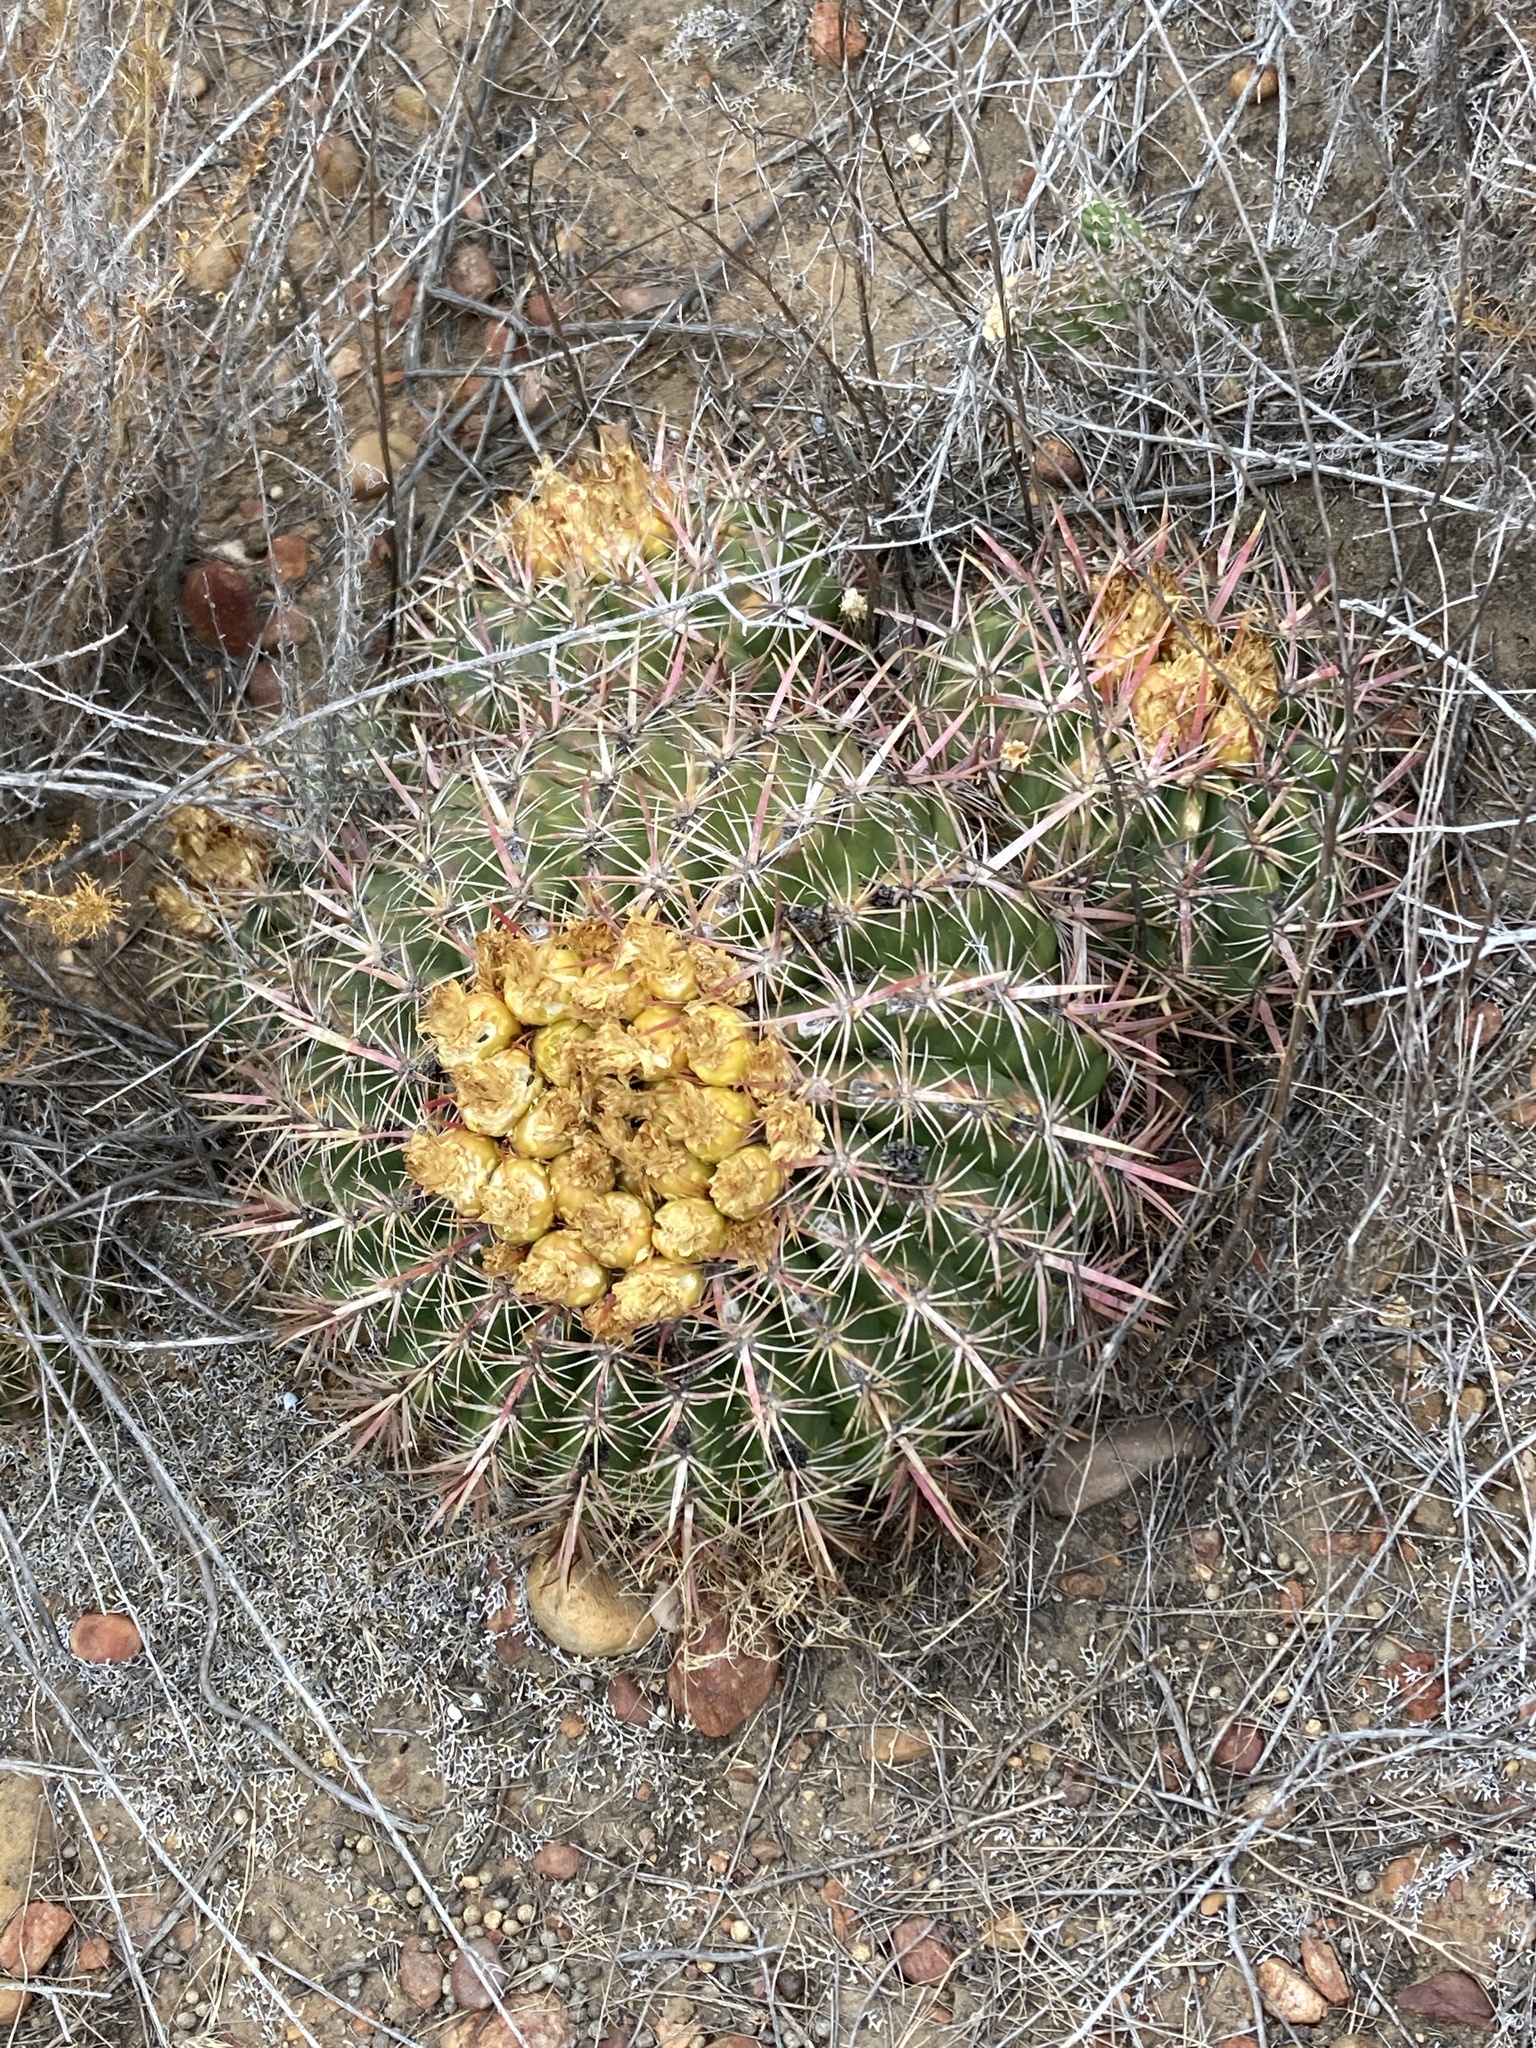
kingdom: Plantae
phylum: Tracheophyta
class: Magnoliopsida
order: Caryophyllales
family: Cactaceae
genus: Ferocactus
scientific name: Ferocactus viridescens
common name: San diego barrel cactus
